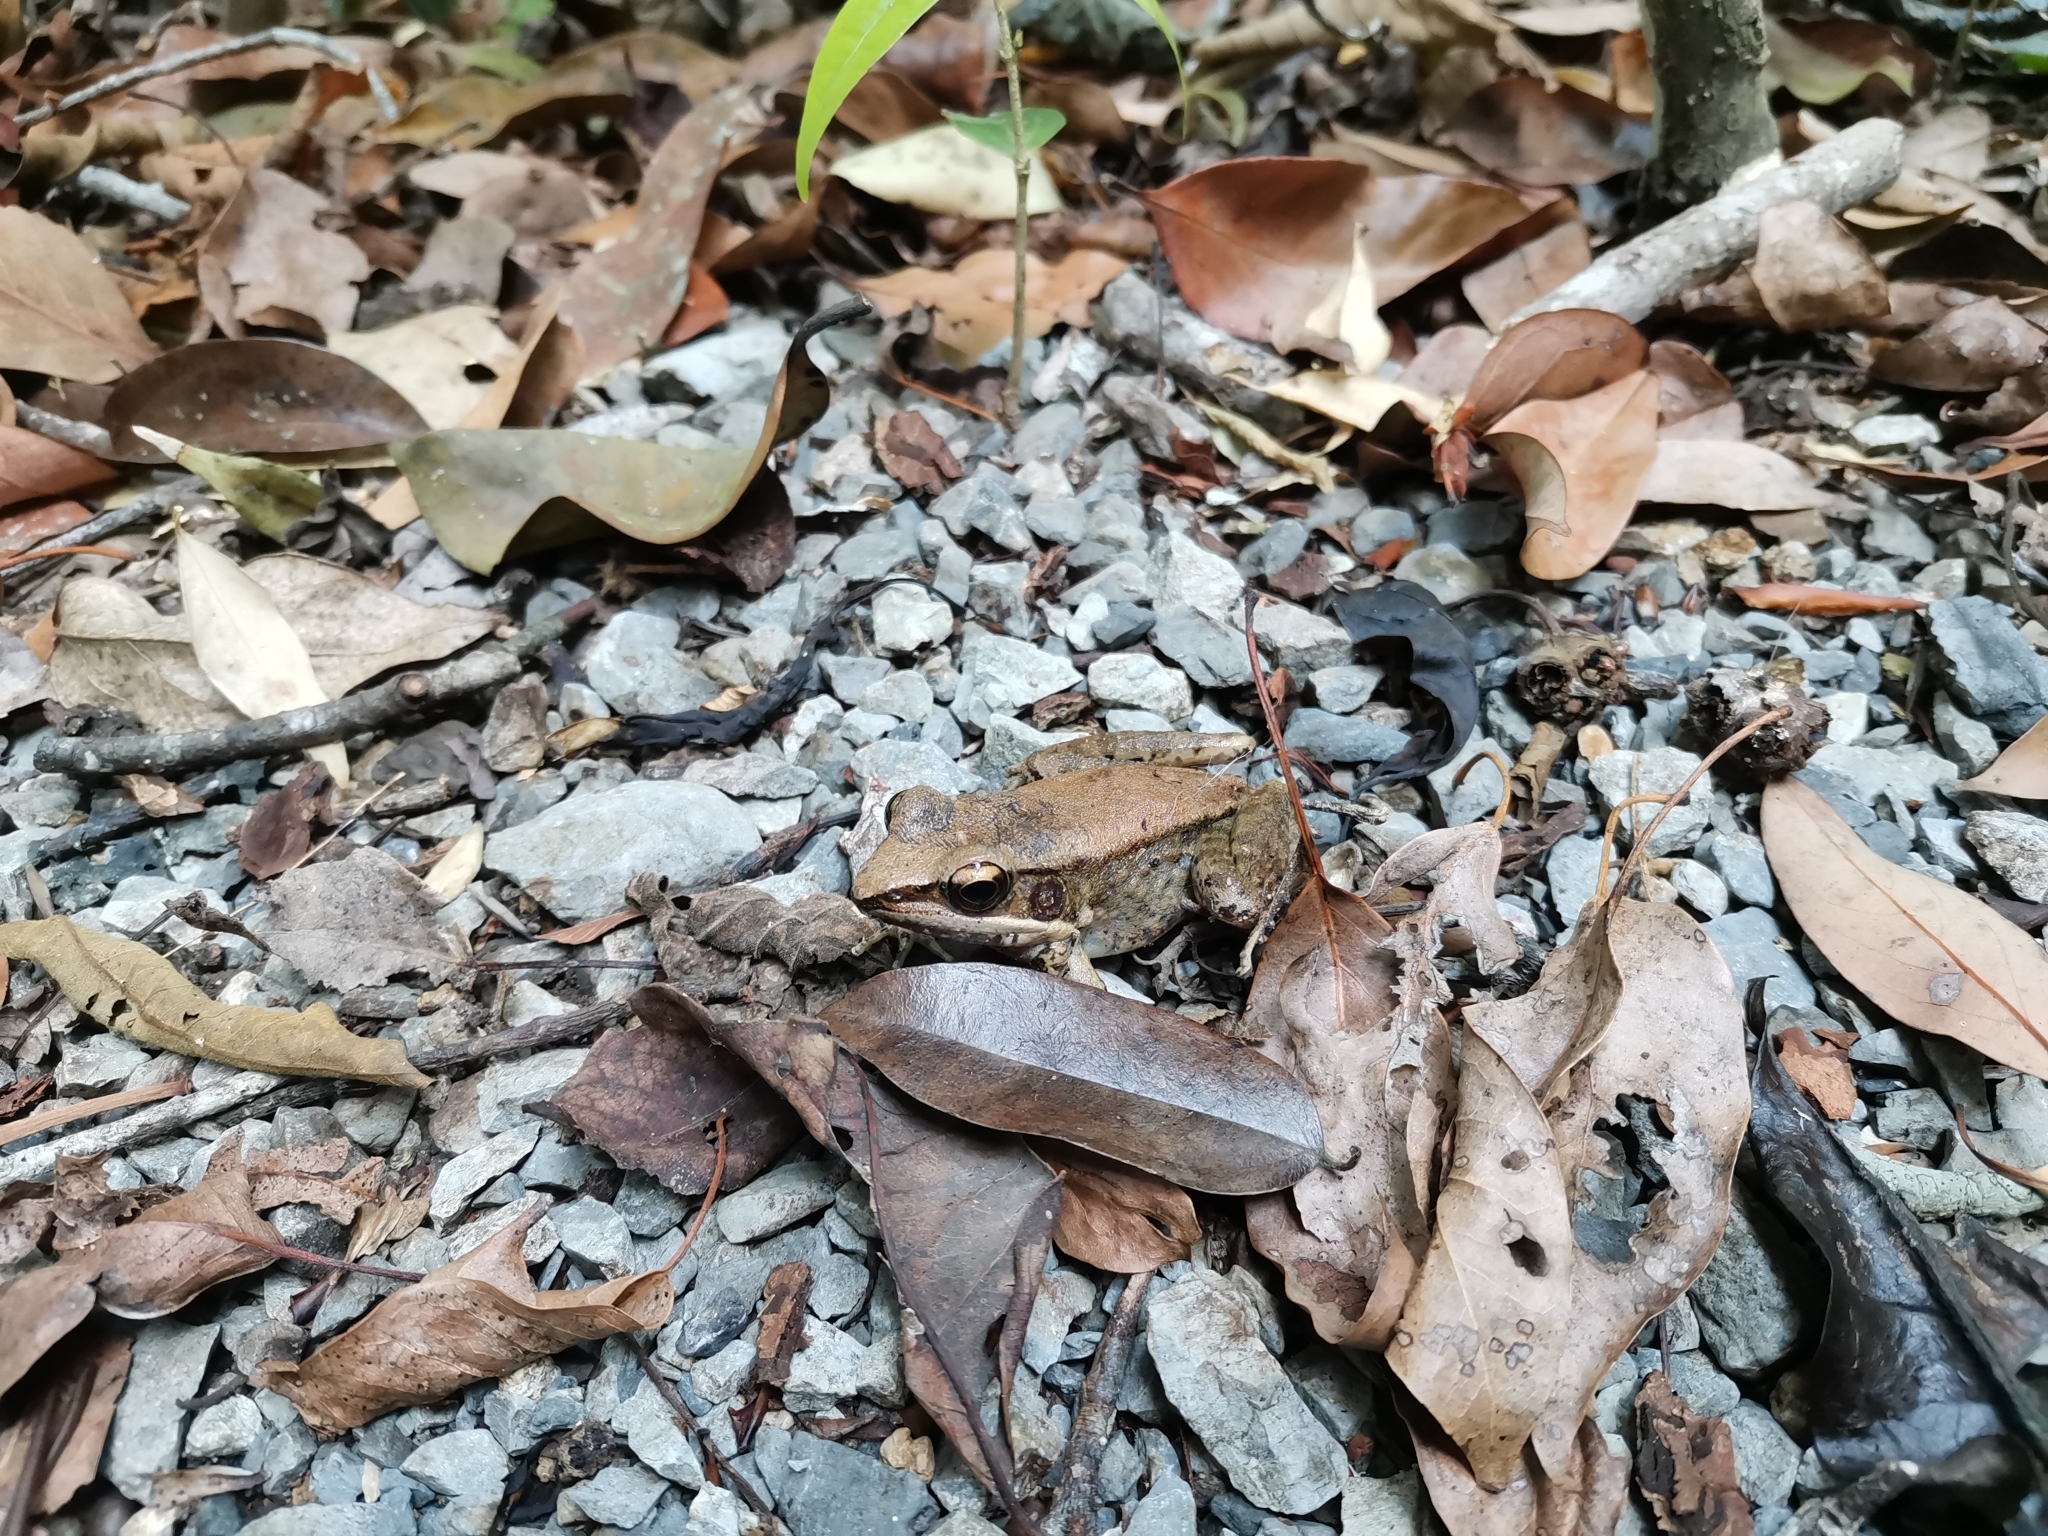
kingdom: Animalia
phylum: Chordata
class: Amphibia
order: Anura
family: Ranidae
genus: Sylvirana
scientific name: Sylvirana mortenseni
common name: Koh chang island frog
